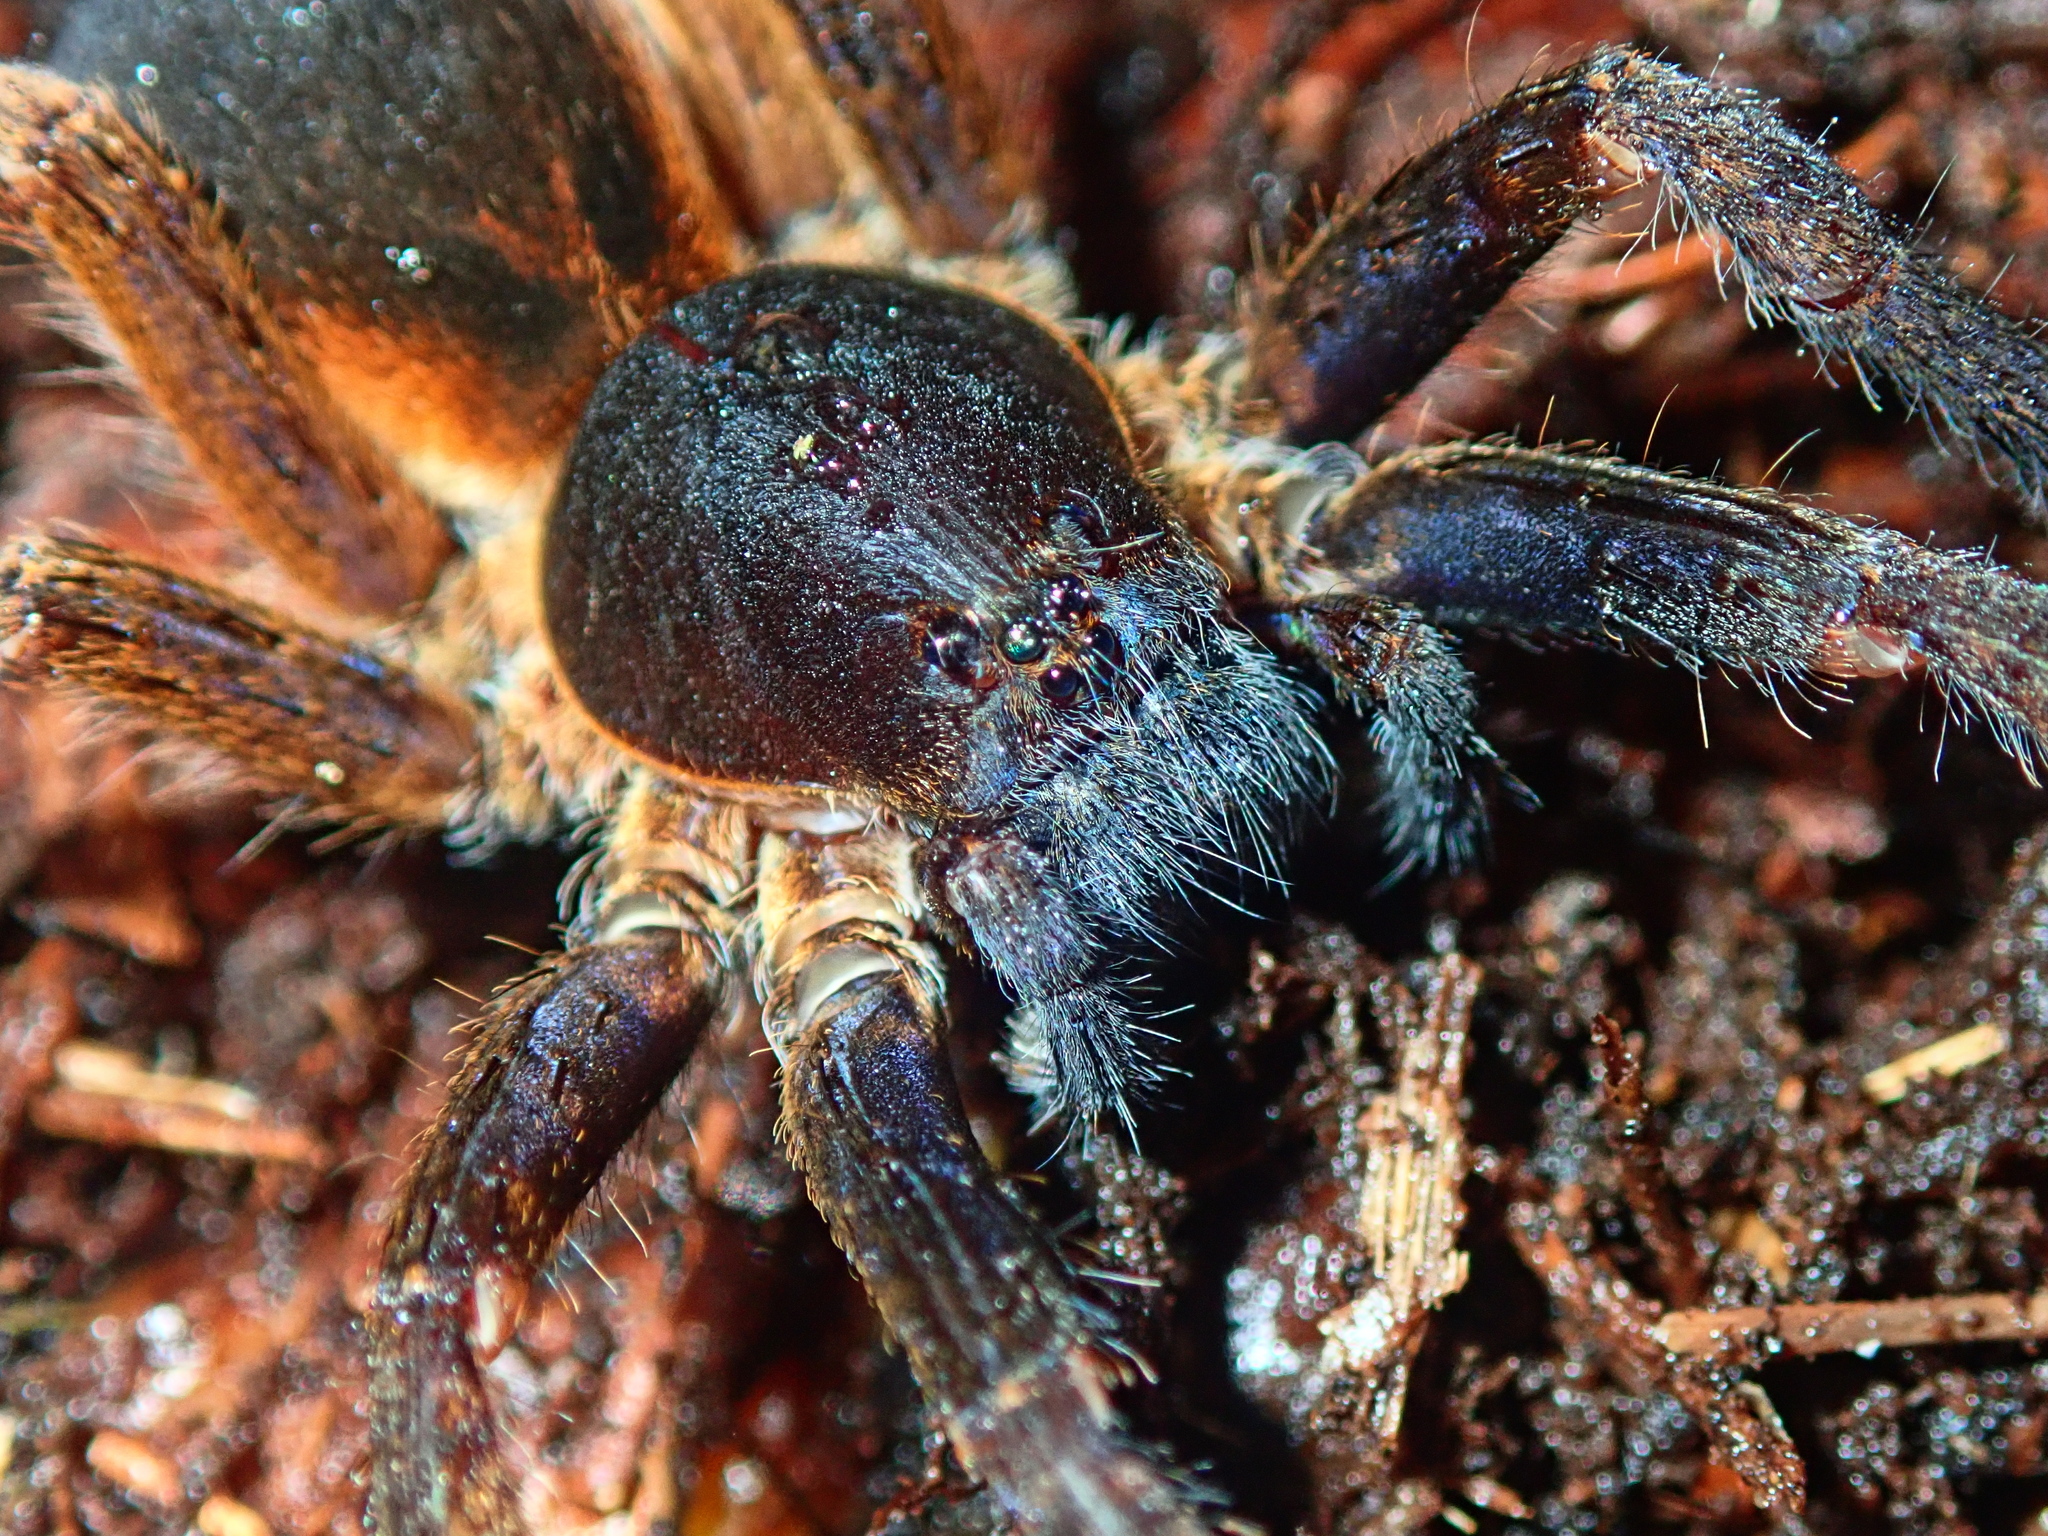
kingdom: Animalia
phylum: Arthropoda
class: Arachnida
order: Araneae
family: Ctenidae
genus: Ctenus
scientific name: Ctenus medius
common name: Wandering spiders
